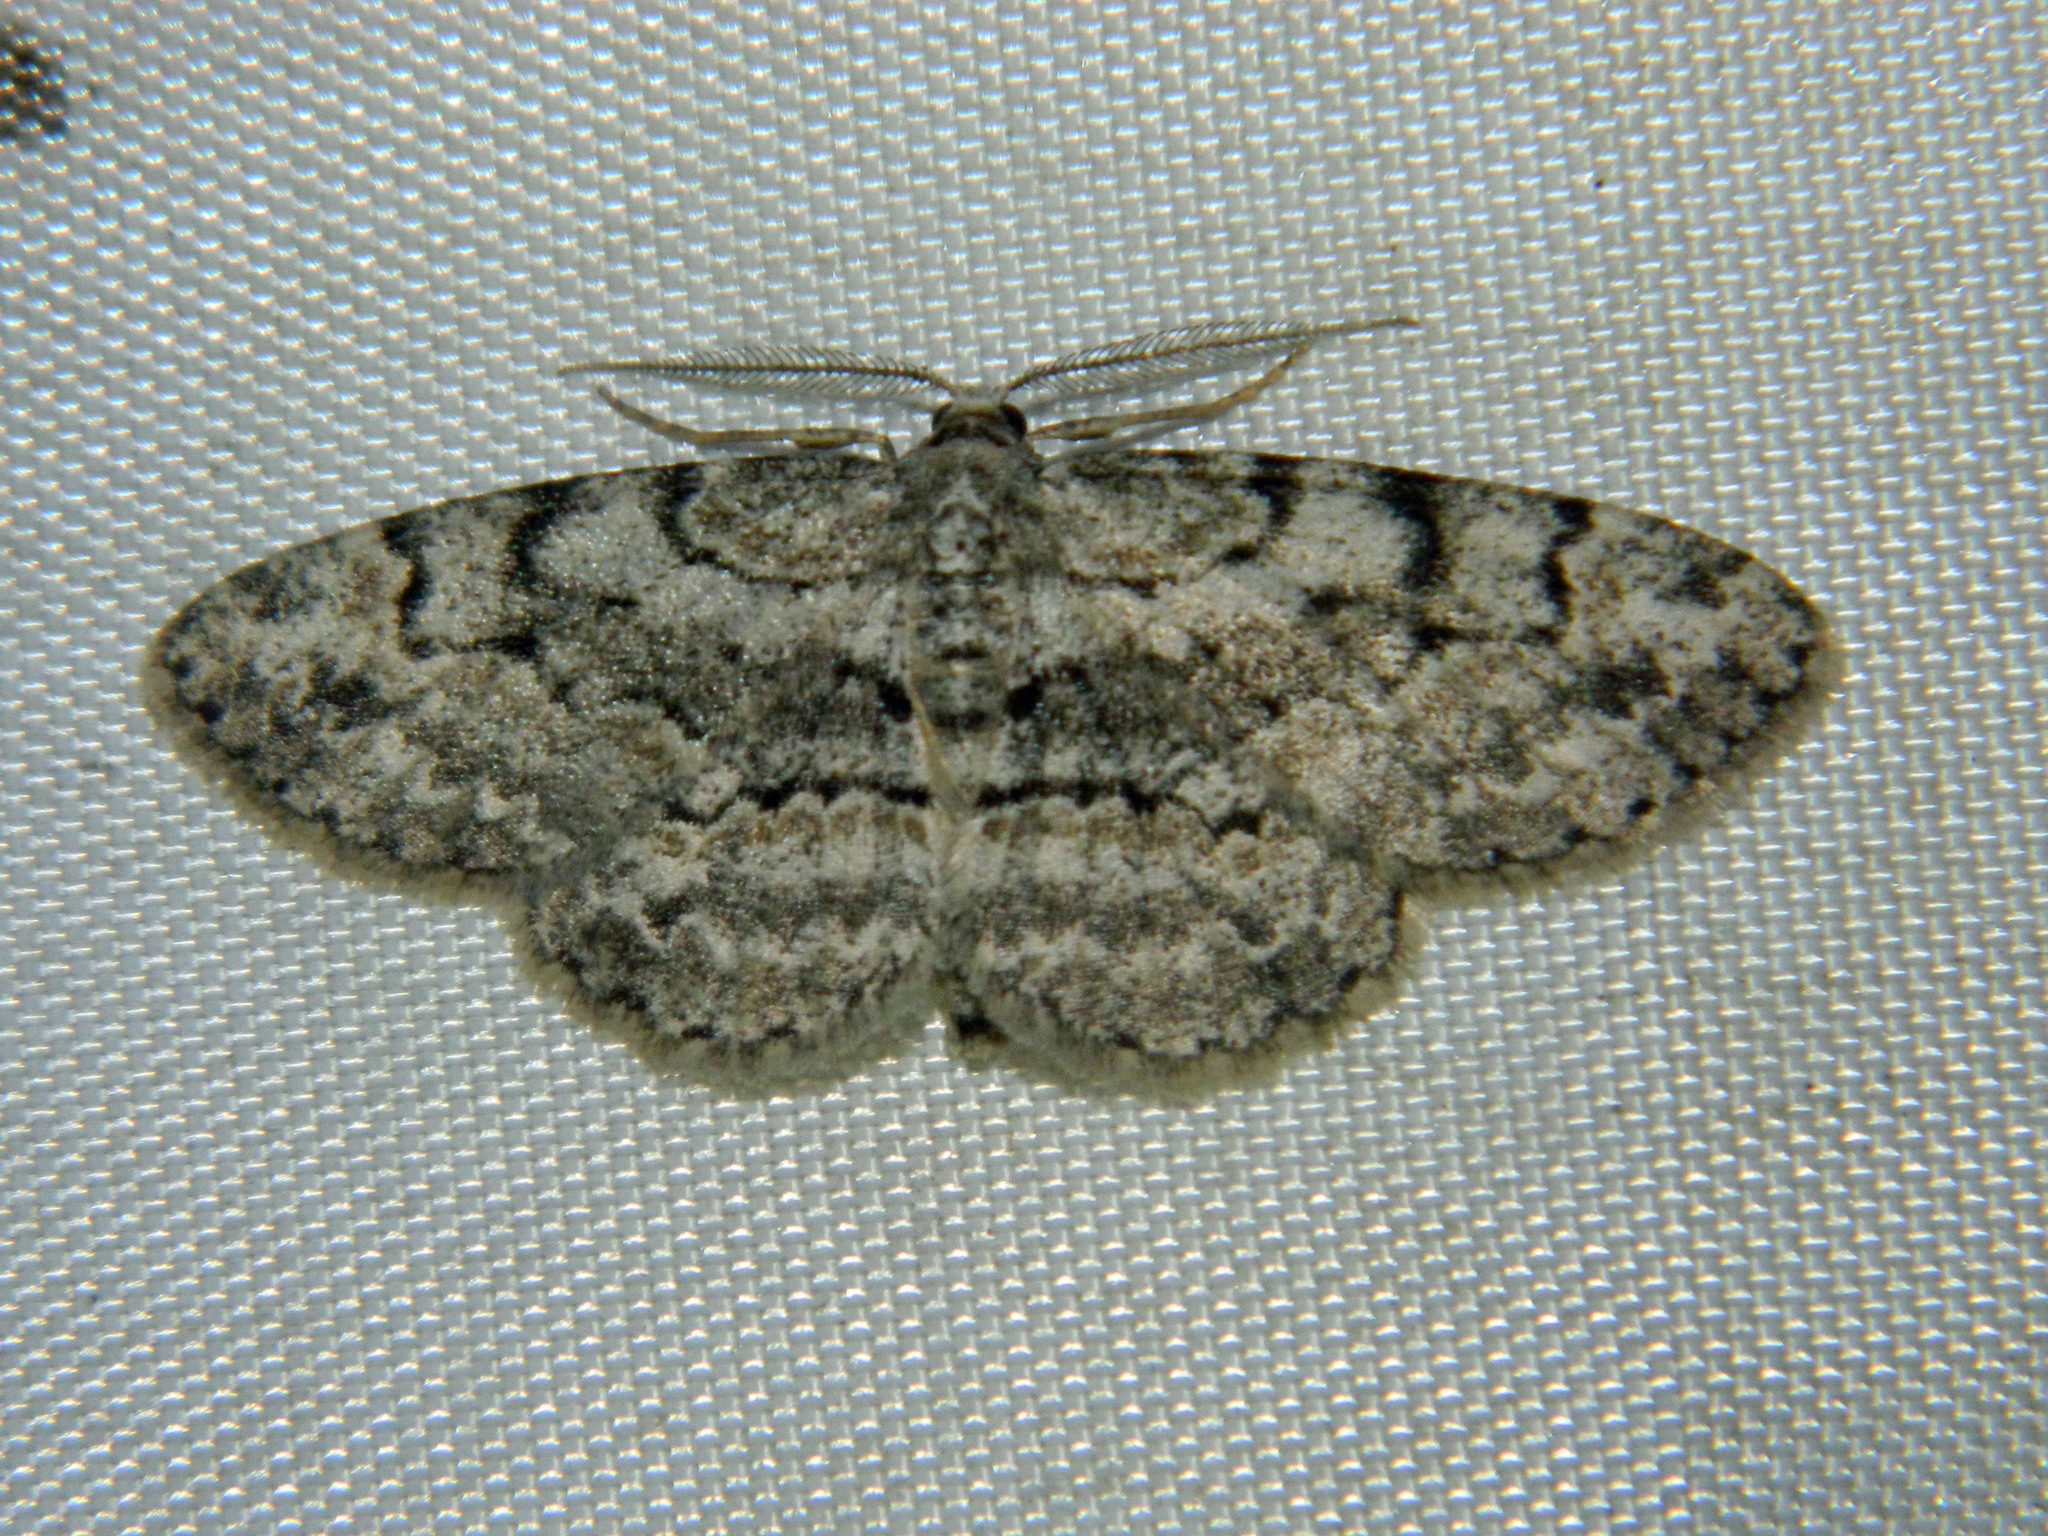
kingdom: Animalia
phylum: Arthropoda
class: Insecta
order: Lepidoptera
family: Geometridae
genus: Iridopsis
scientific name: Iridopsis ephyraria
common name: Pale-winged gray
